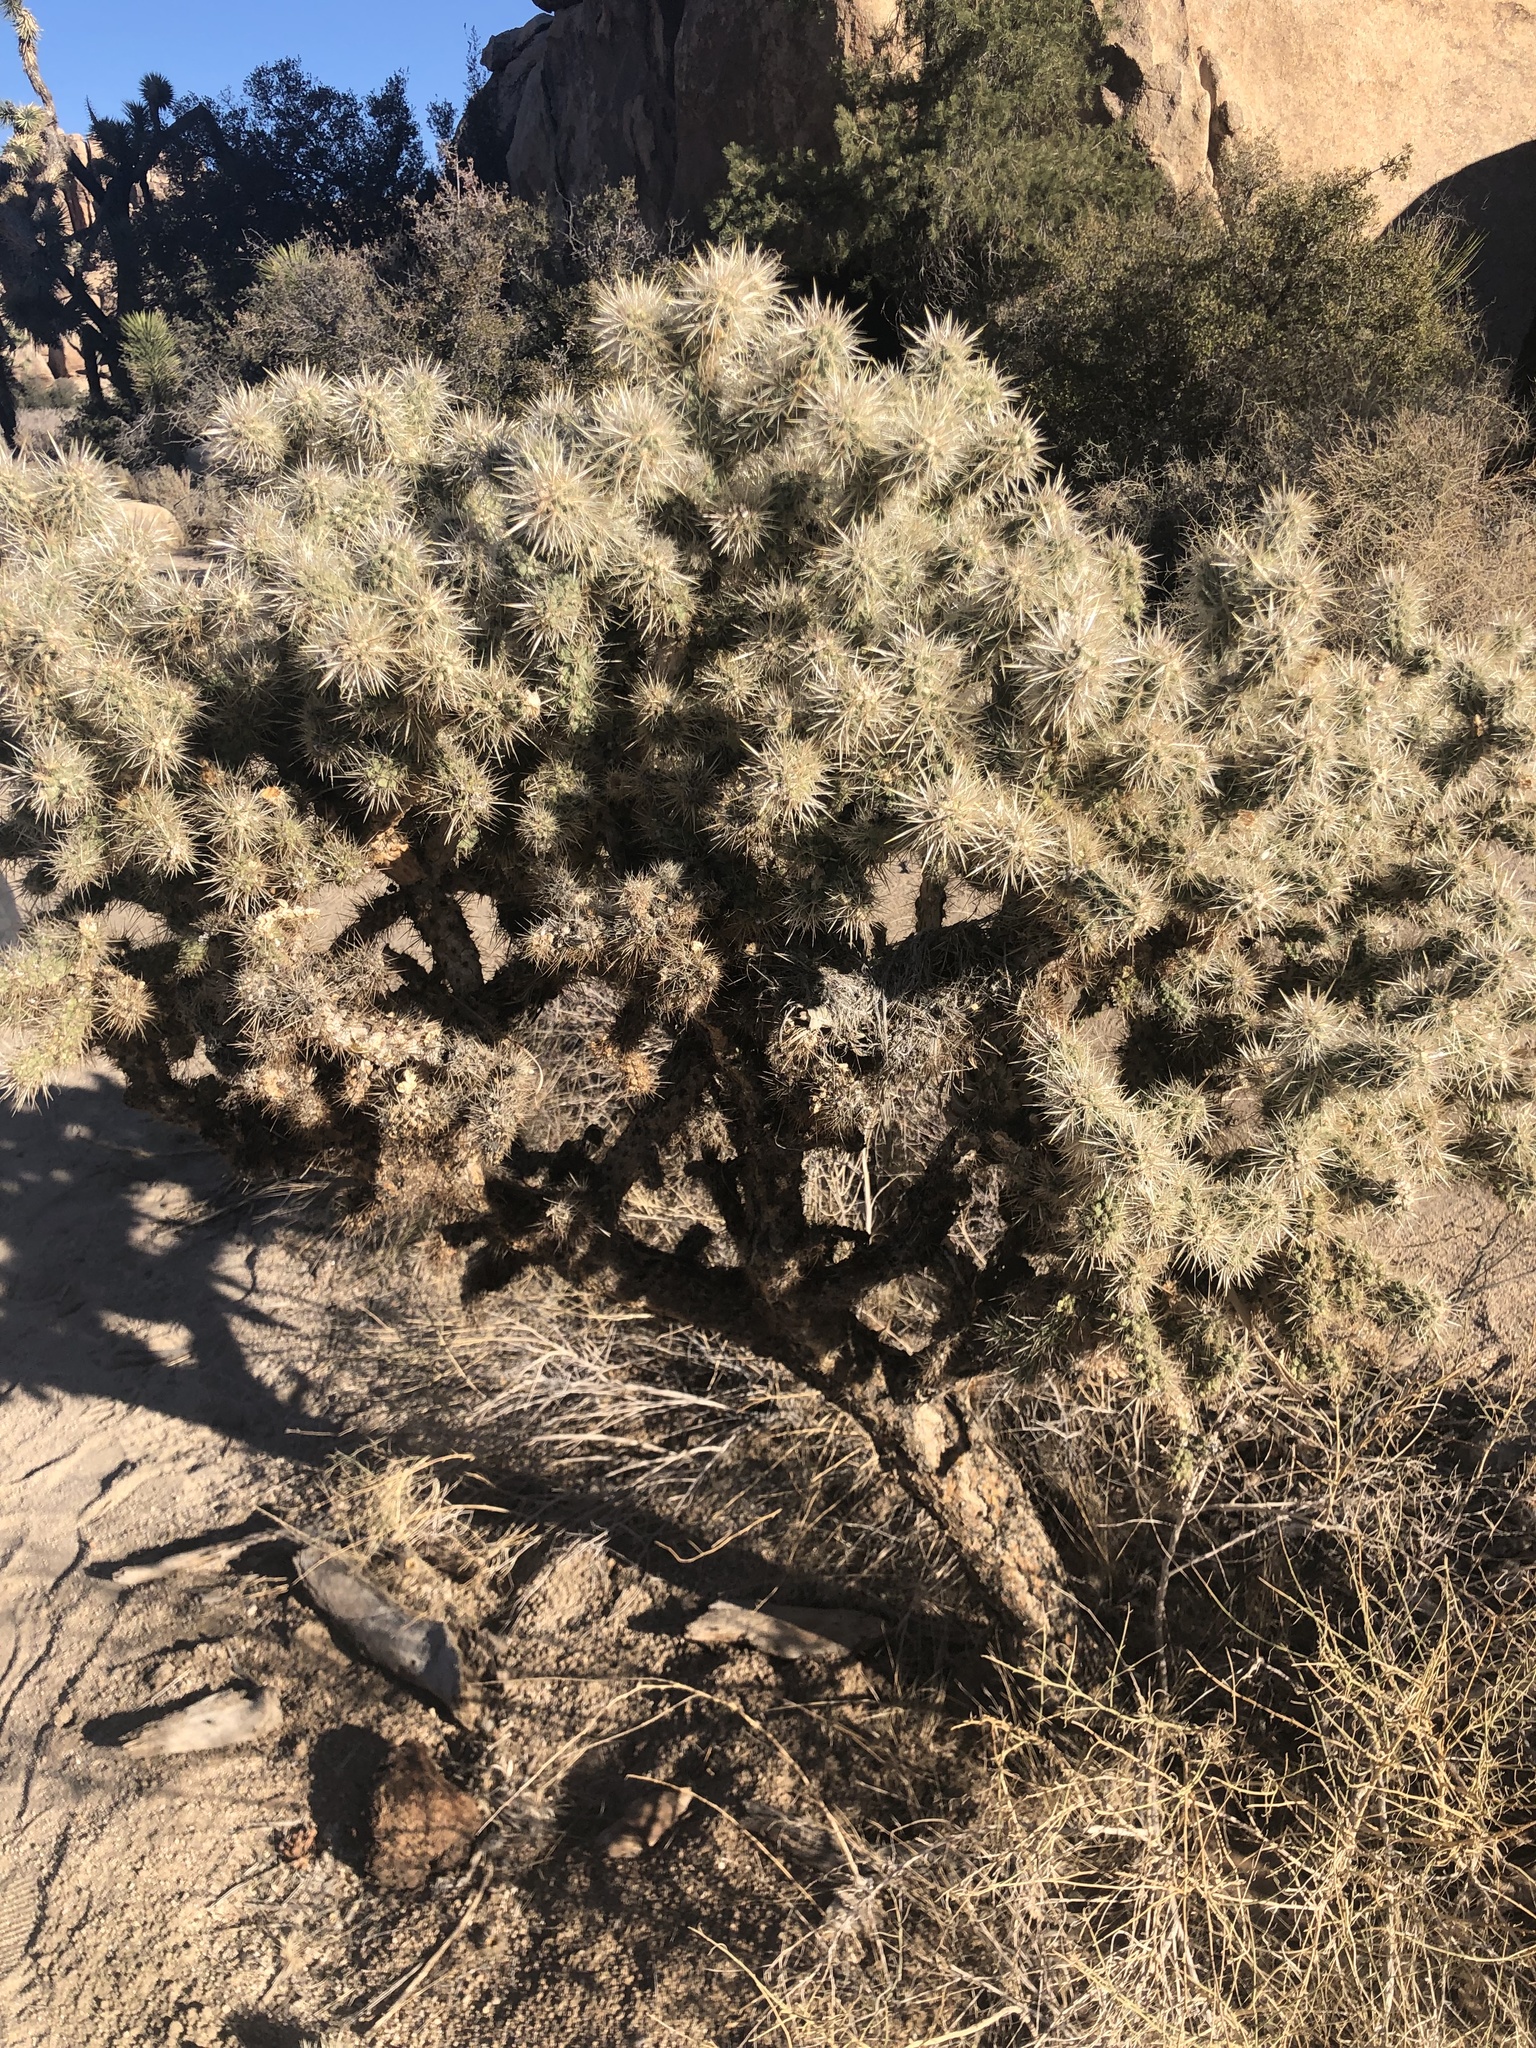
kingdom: Plantae
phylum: Tracheophyta
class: Magnoliopsida
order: Caryophyllales
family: Cactaceae
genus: Cylindropuntia
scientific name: Cylindropuntia echinocarpa
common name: Ground cholla
